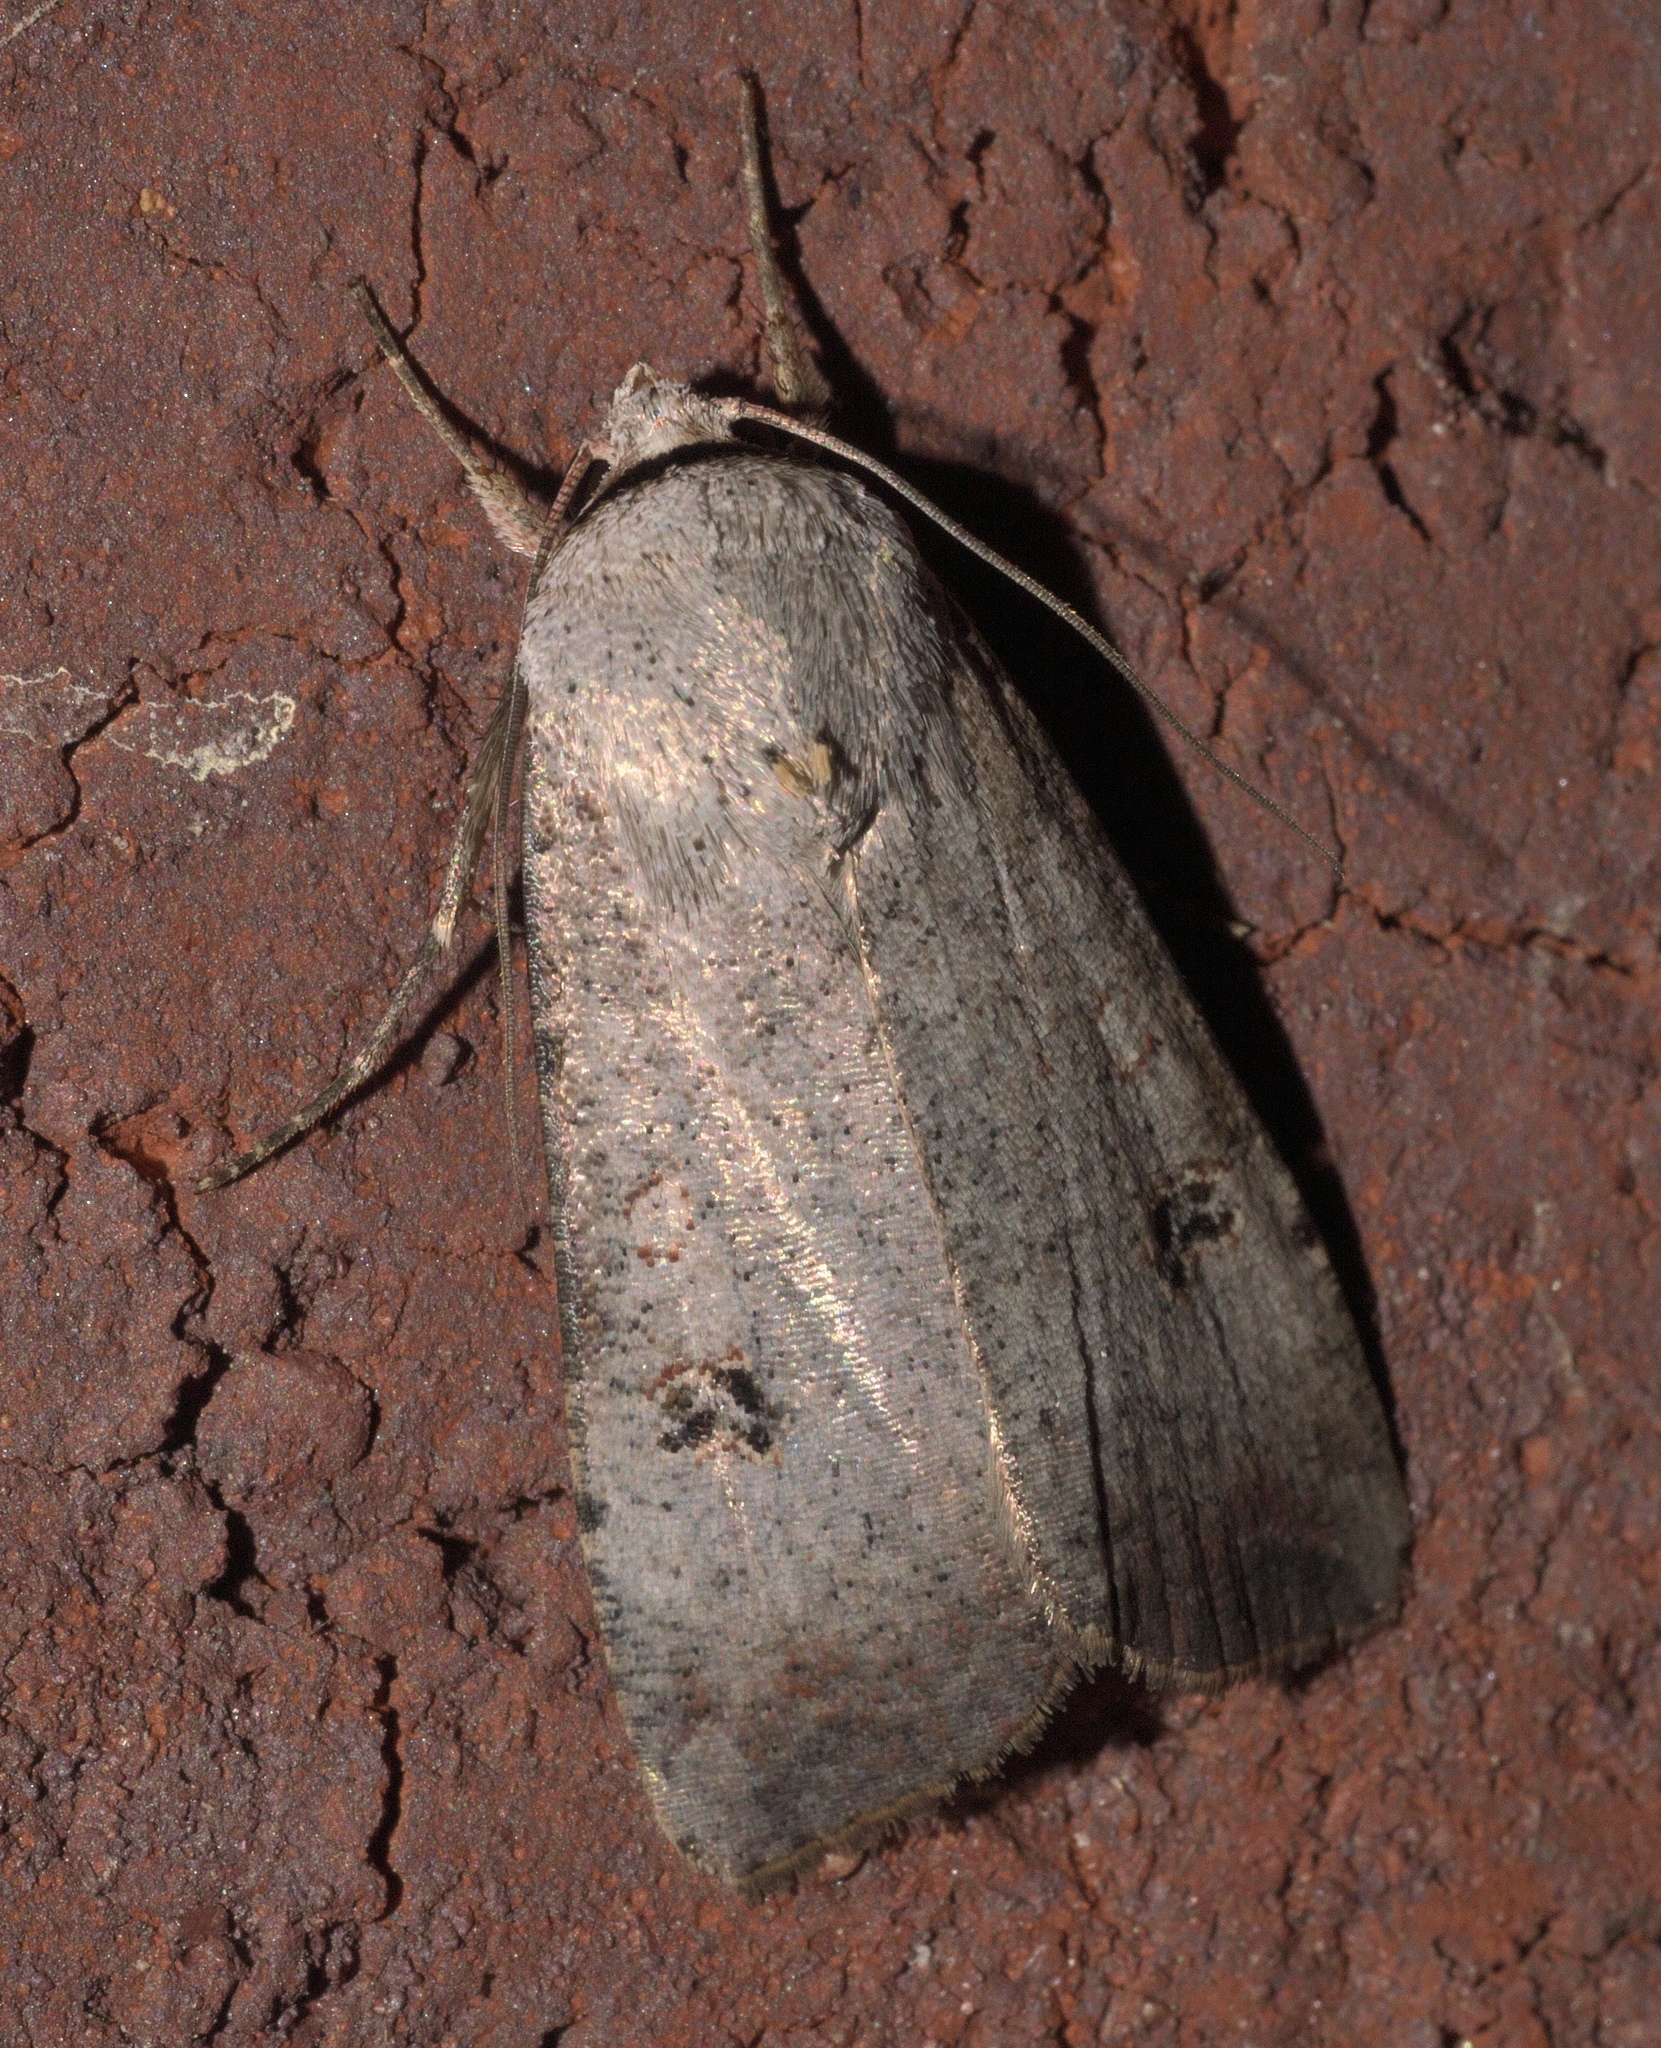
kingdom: Animalia
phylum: Arthropoda
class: Insecta
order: Lepidoptera
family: Noctuidae
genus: Anicla
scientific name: Anicla infecta
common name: Green cutworm
